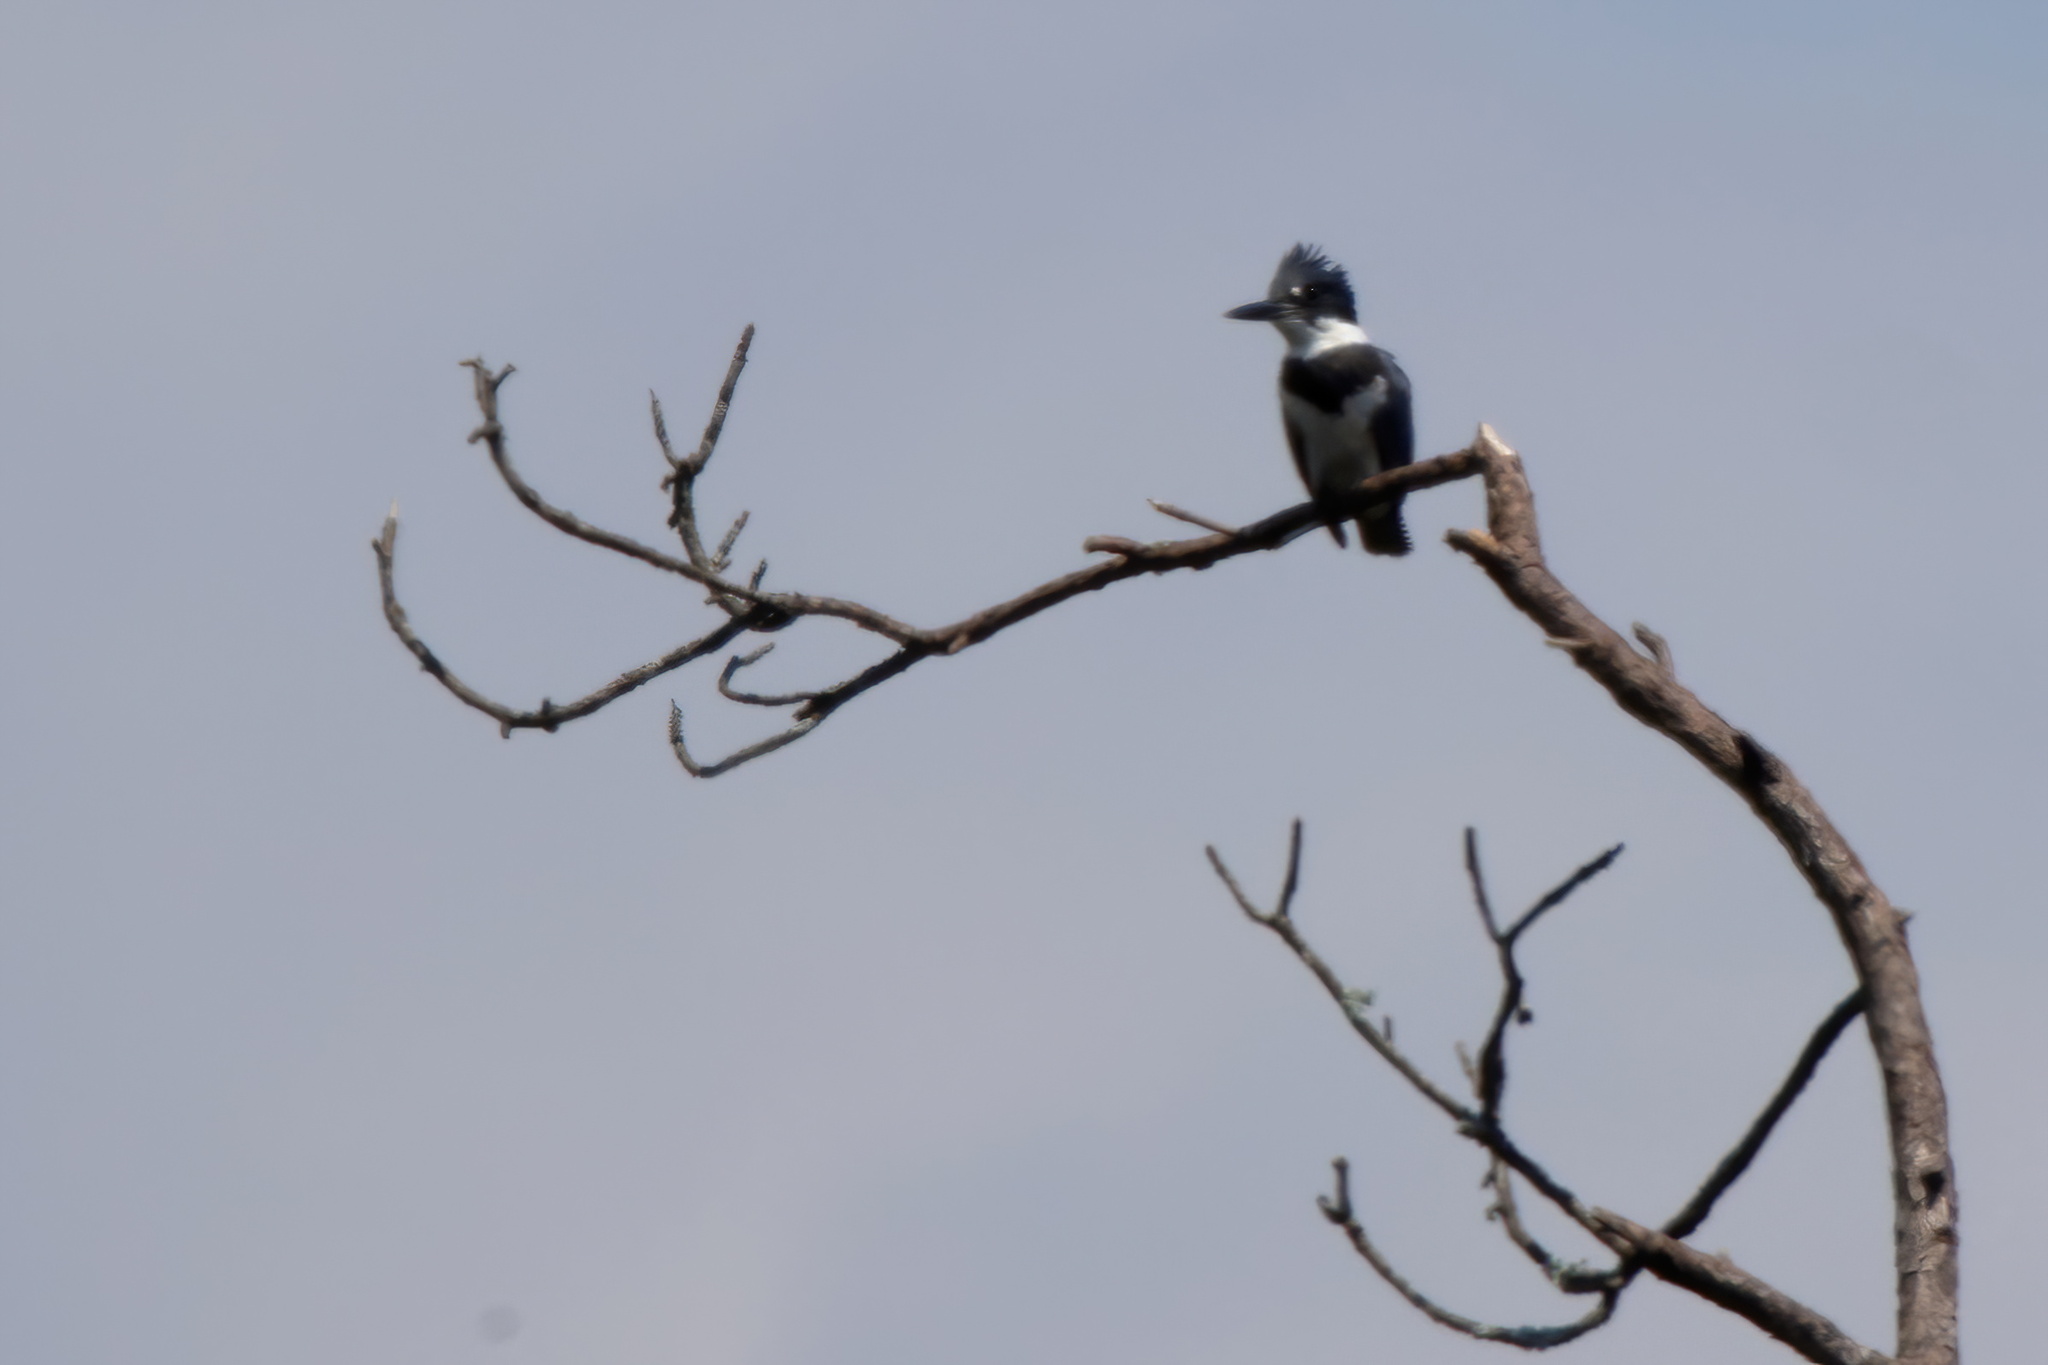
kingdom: Animalia
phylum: Chordata
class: Aves
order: Coraciiformes
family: Alcedinidae
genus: Megaceryle
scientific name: Megaceryle alcyon
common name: Belted kingfisher
